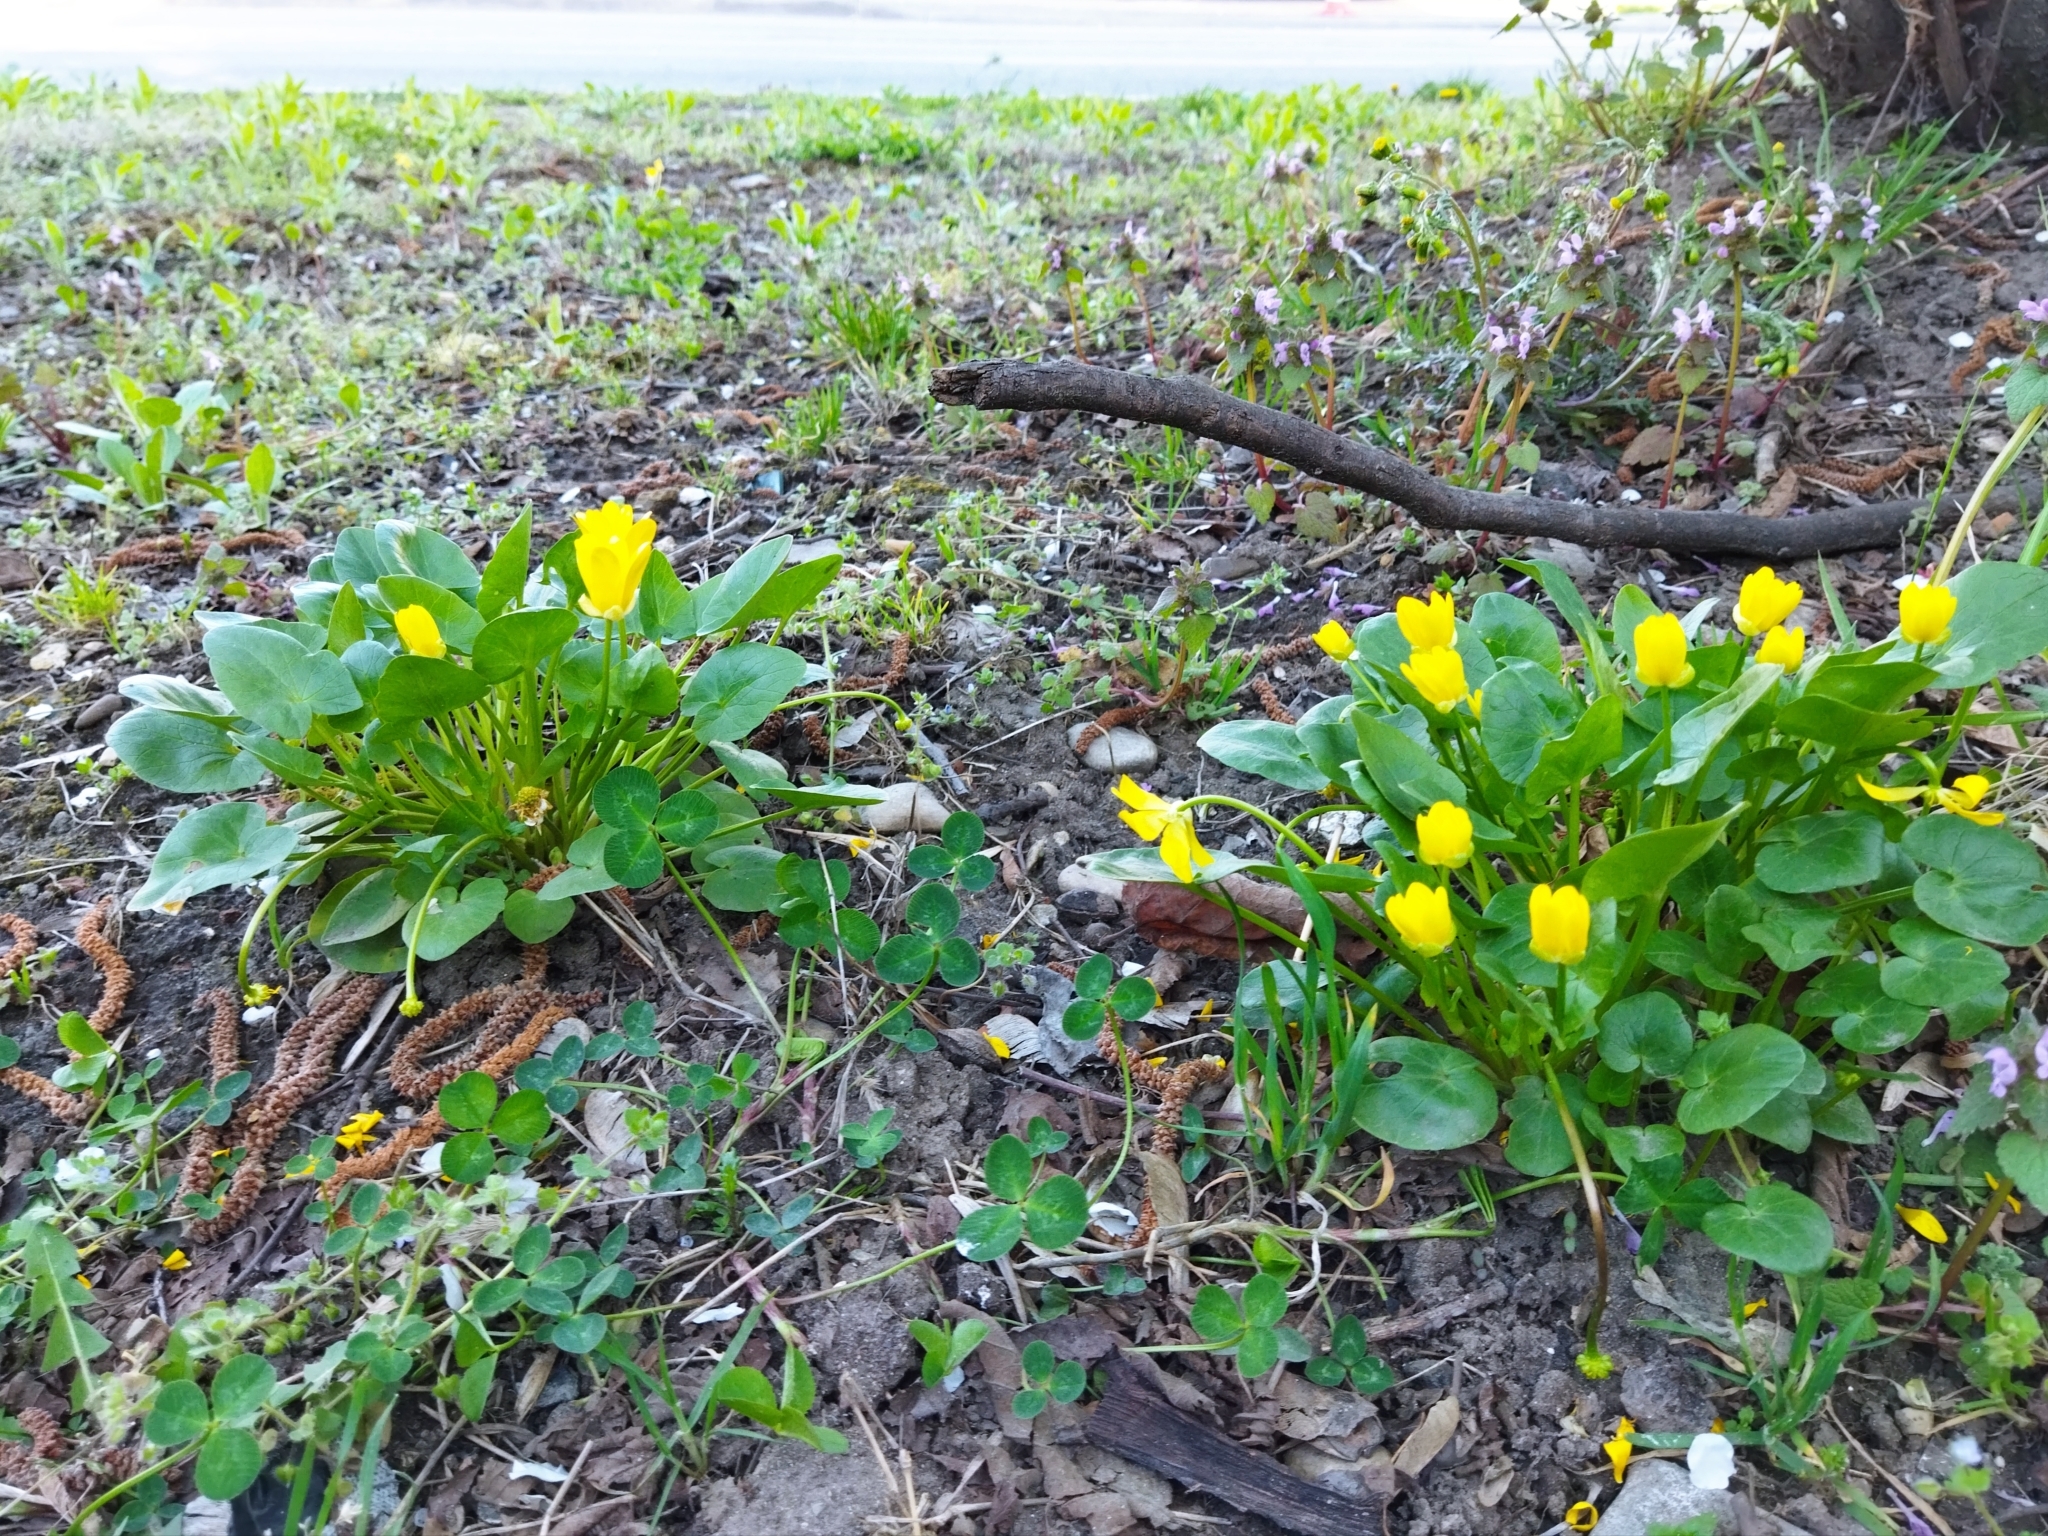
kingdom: Plantae
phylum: Tracheophyta
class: Magnoliopsida
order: Ranunculales
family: Ranunculaceae
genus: Ficaria
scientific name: Ficaria verna
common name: Lesser celandine
